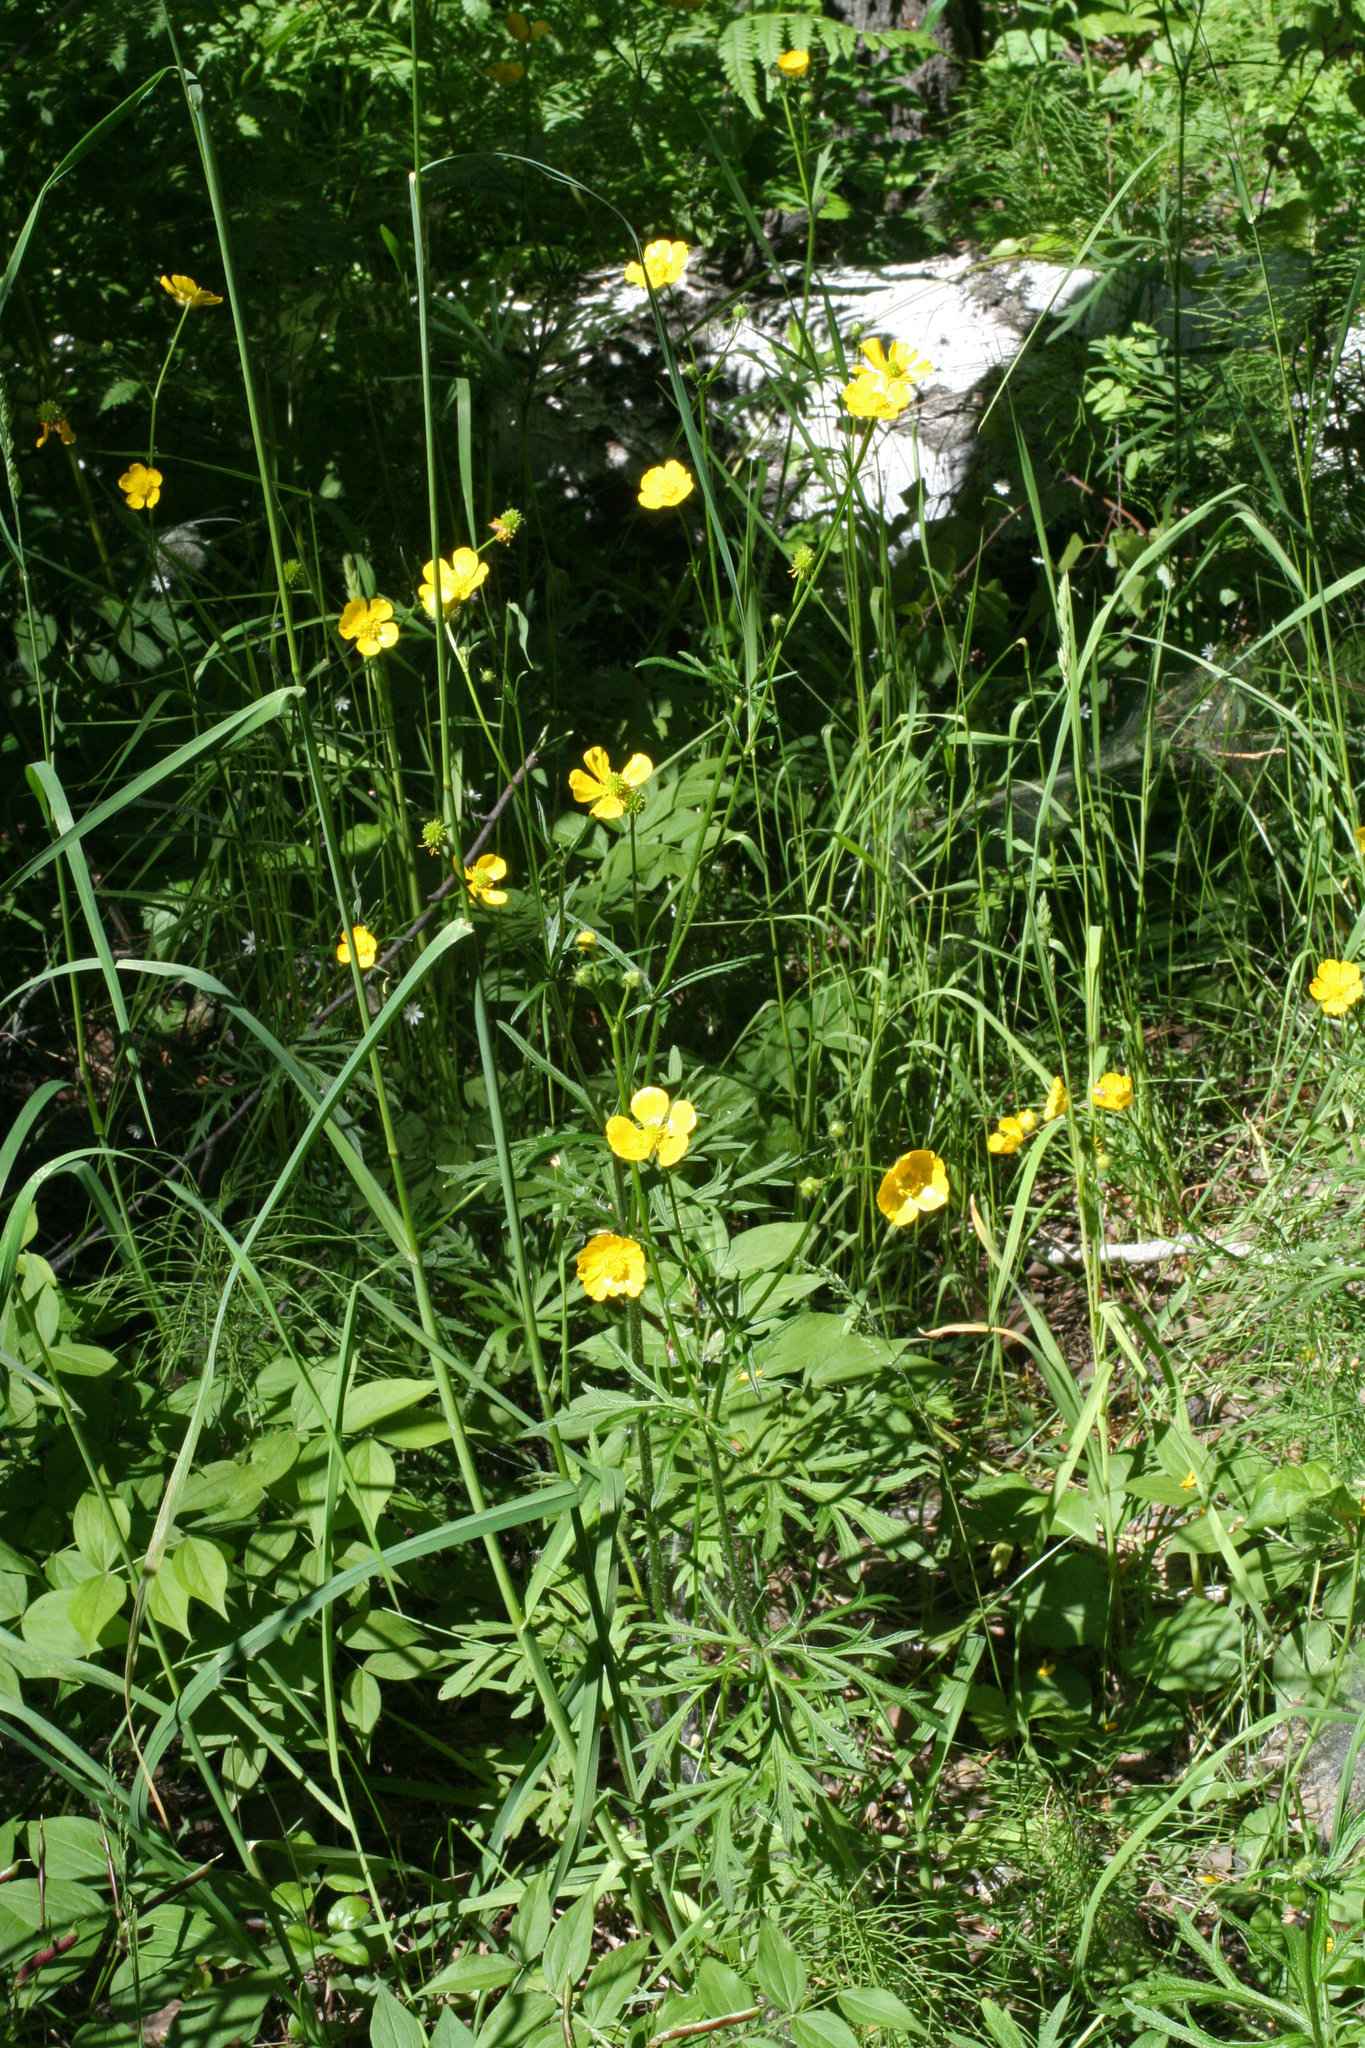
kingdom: Plantae
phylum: Tracheophyta
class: Magnoliopsida
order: Ranunculales
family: Ranunculaceae
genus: Ranunculus
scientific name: Ranunculus polyanthemos
